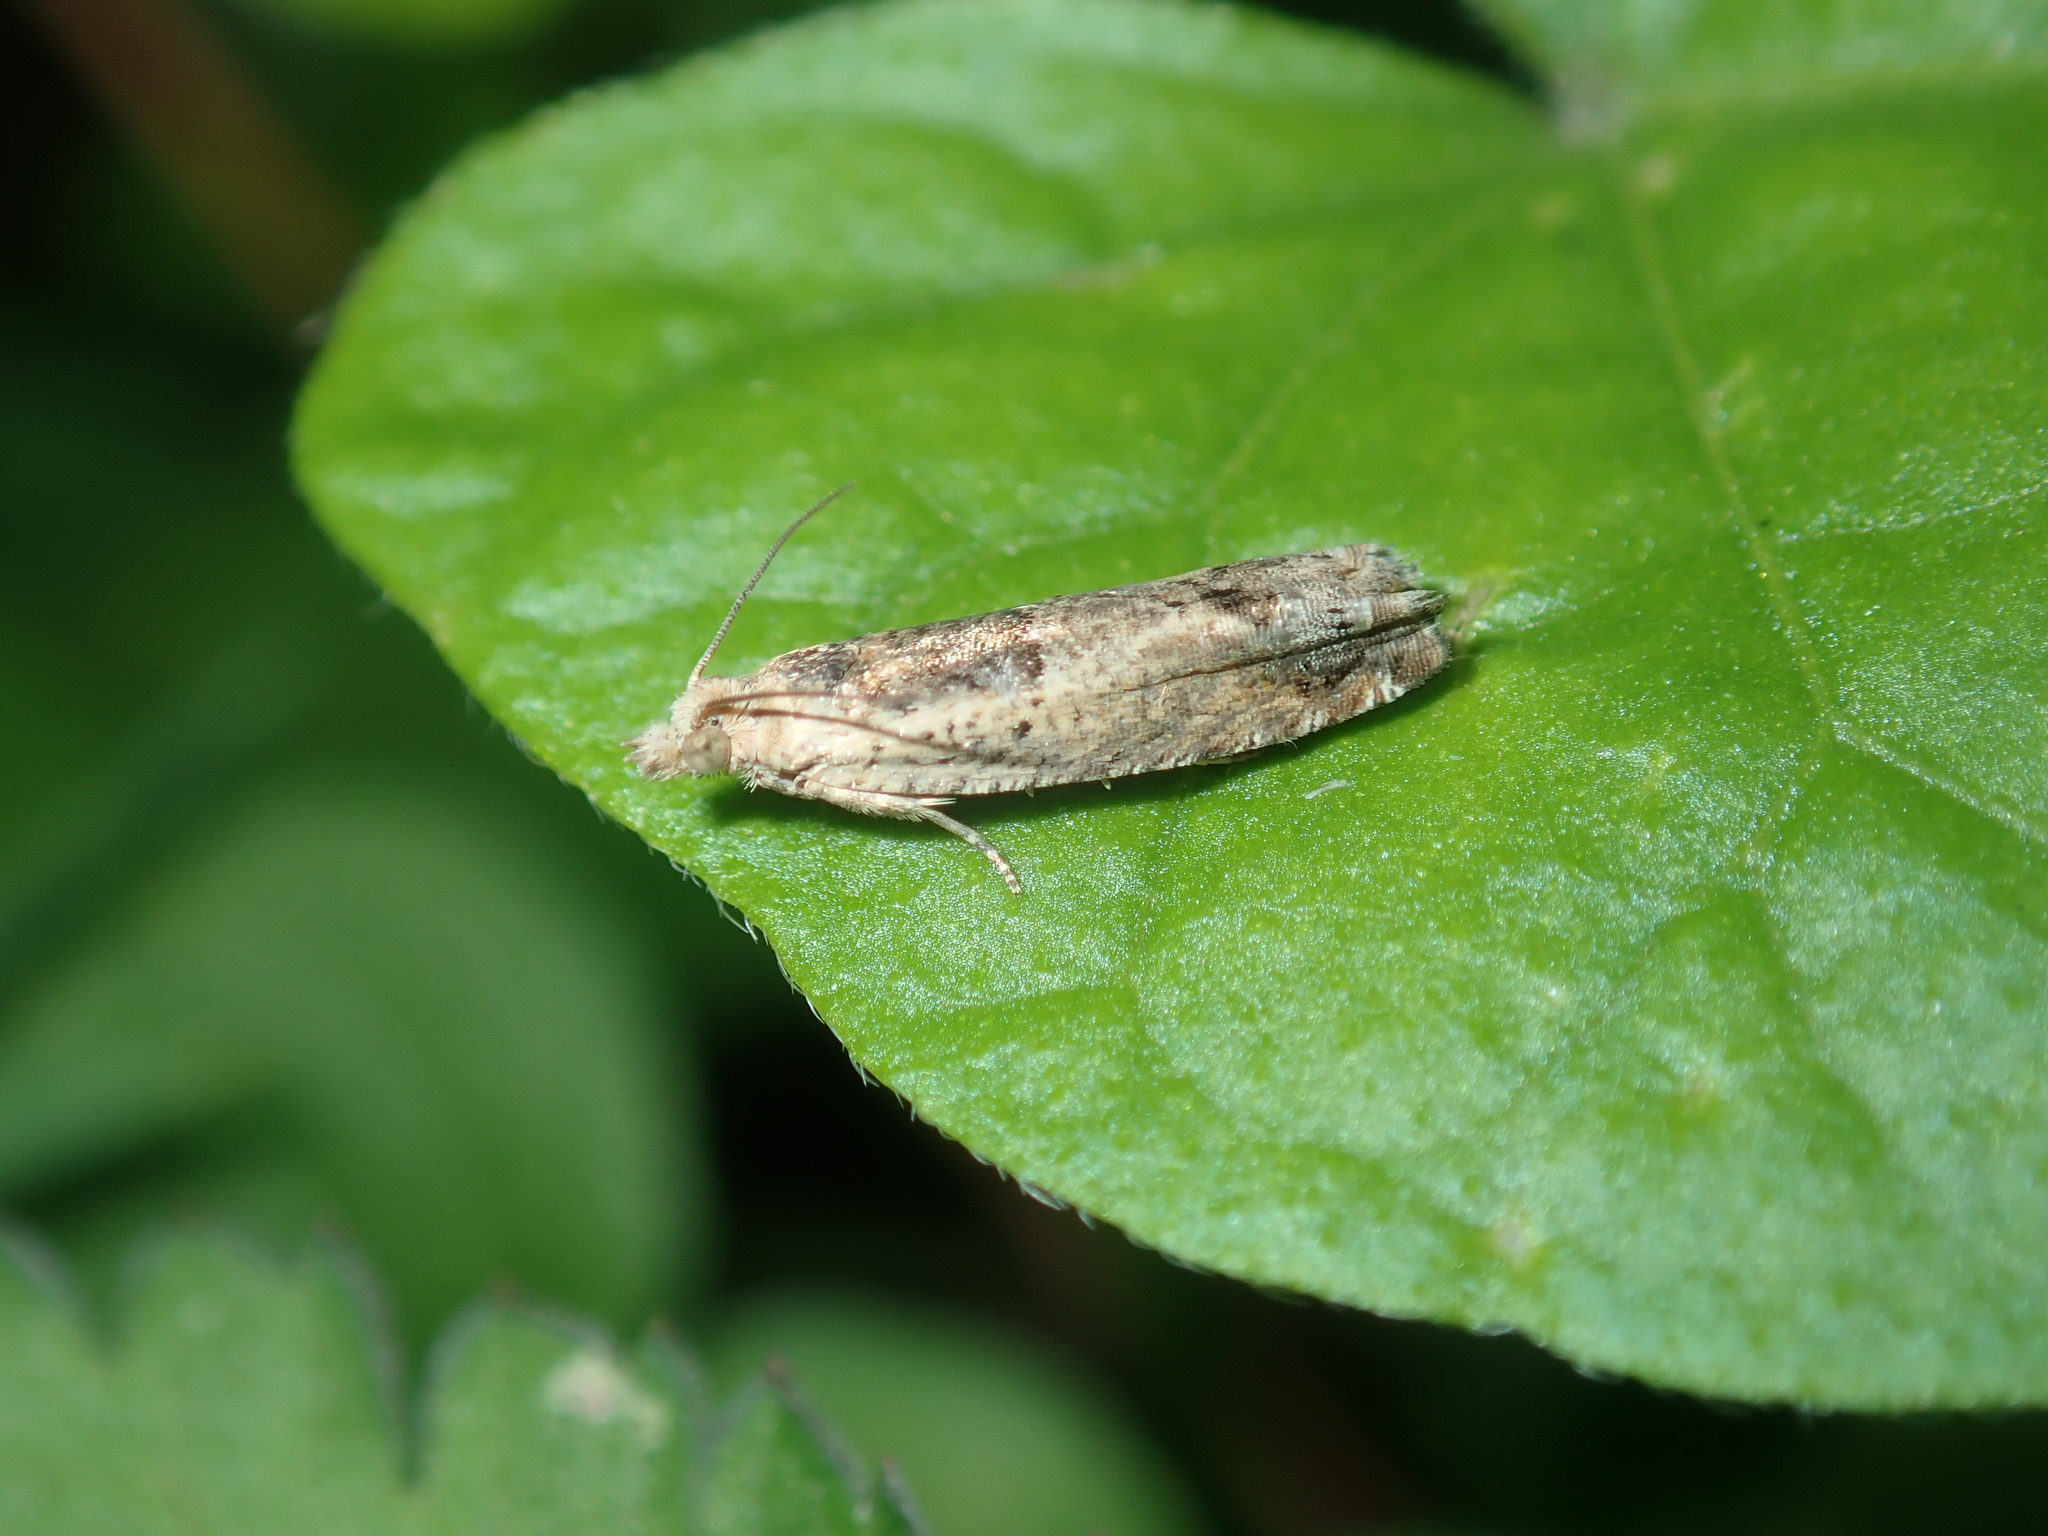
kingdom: Animalia
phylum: Arthropoda
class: Insecta
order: Lepidoptera
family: Tortricidae
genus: Crocidosema
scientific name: Crocidosema plebejana
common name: Southern bell
